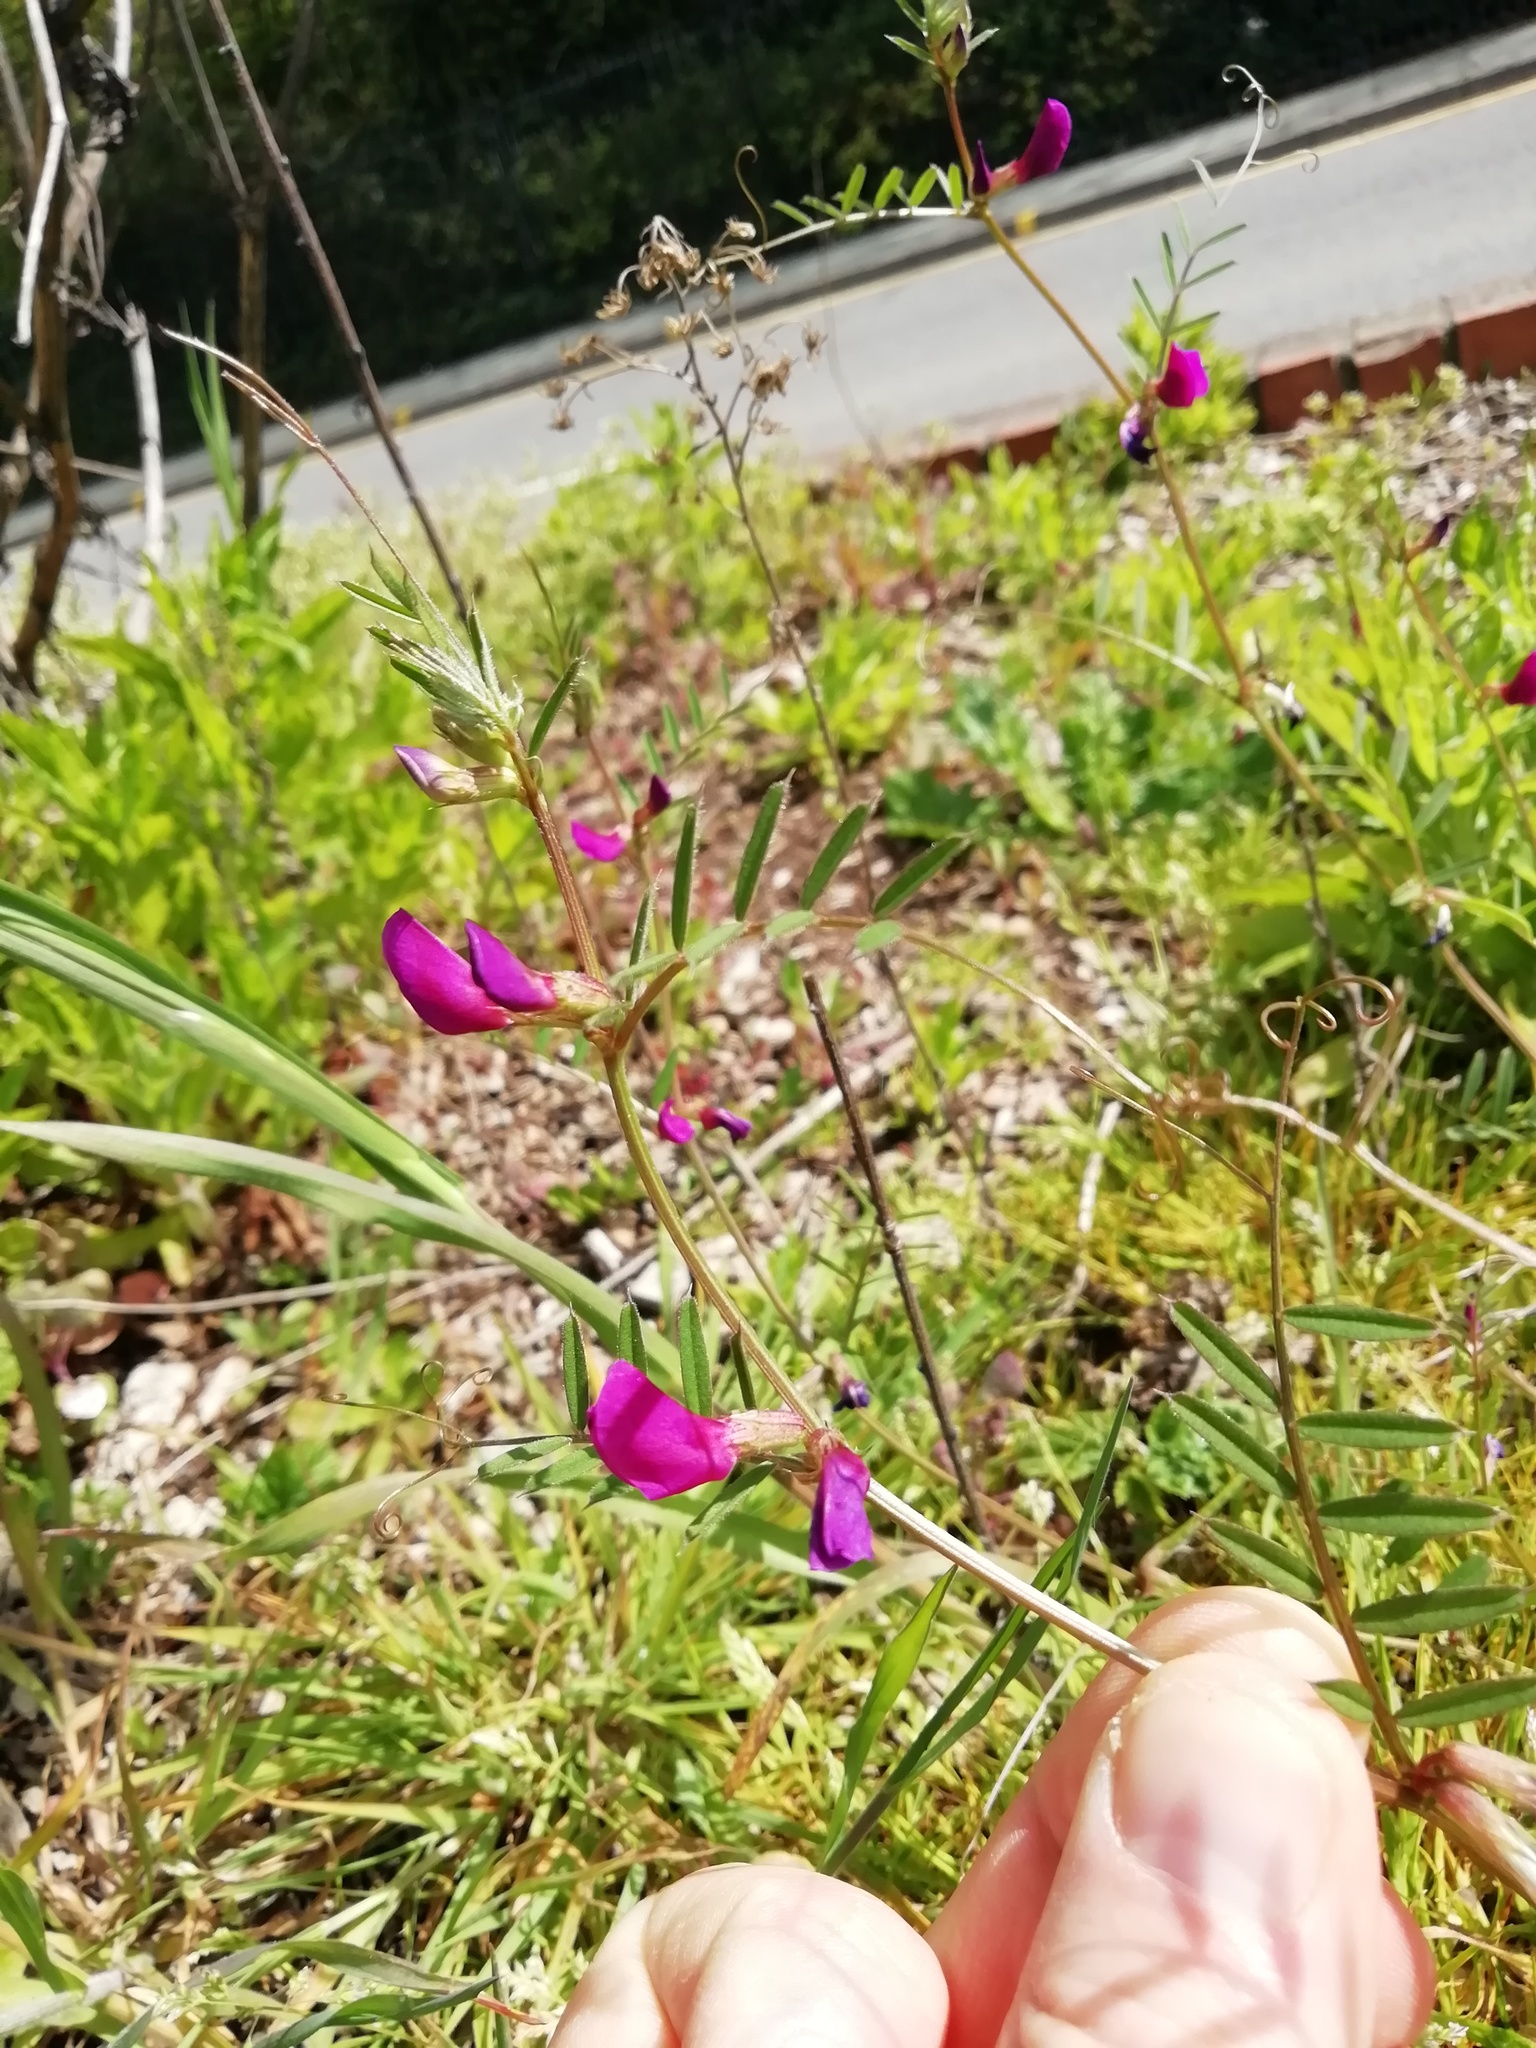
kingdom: Plantae
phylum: Tracheophyta
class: Magnoliopsida
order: Fabales
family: Fabaceae
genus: Vicia
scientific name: Vicia sativa
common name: Garden vetch
